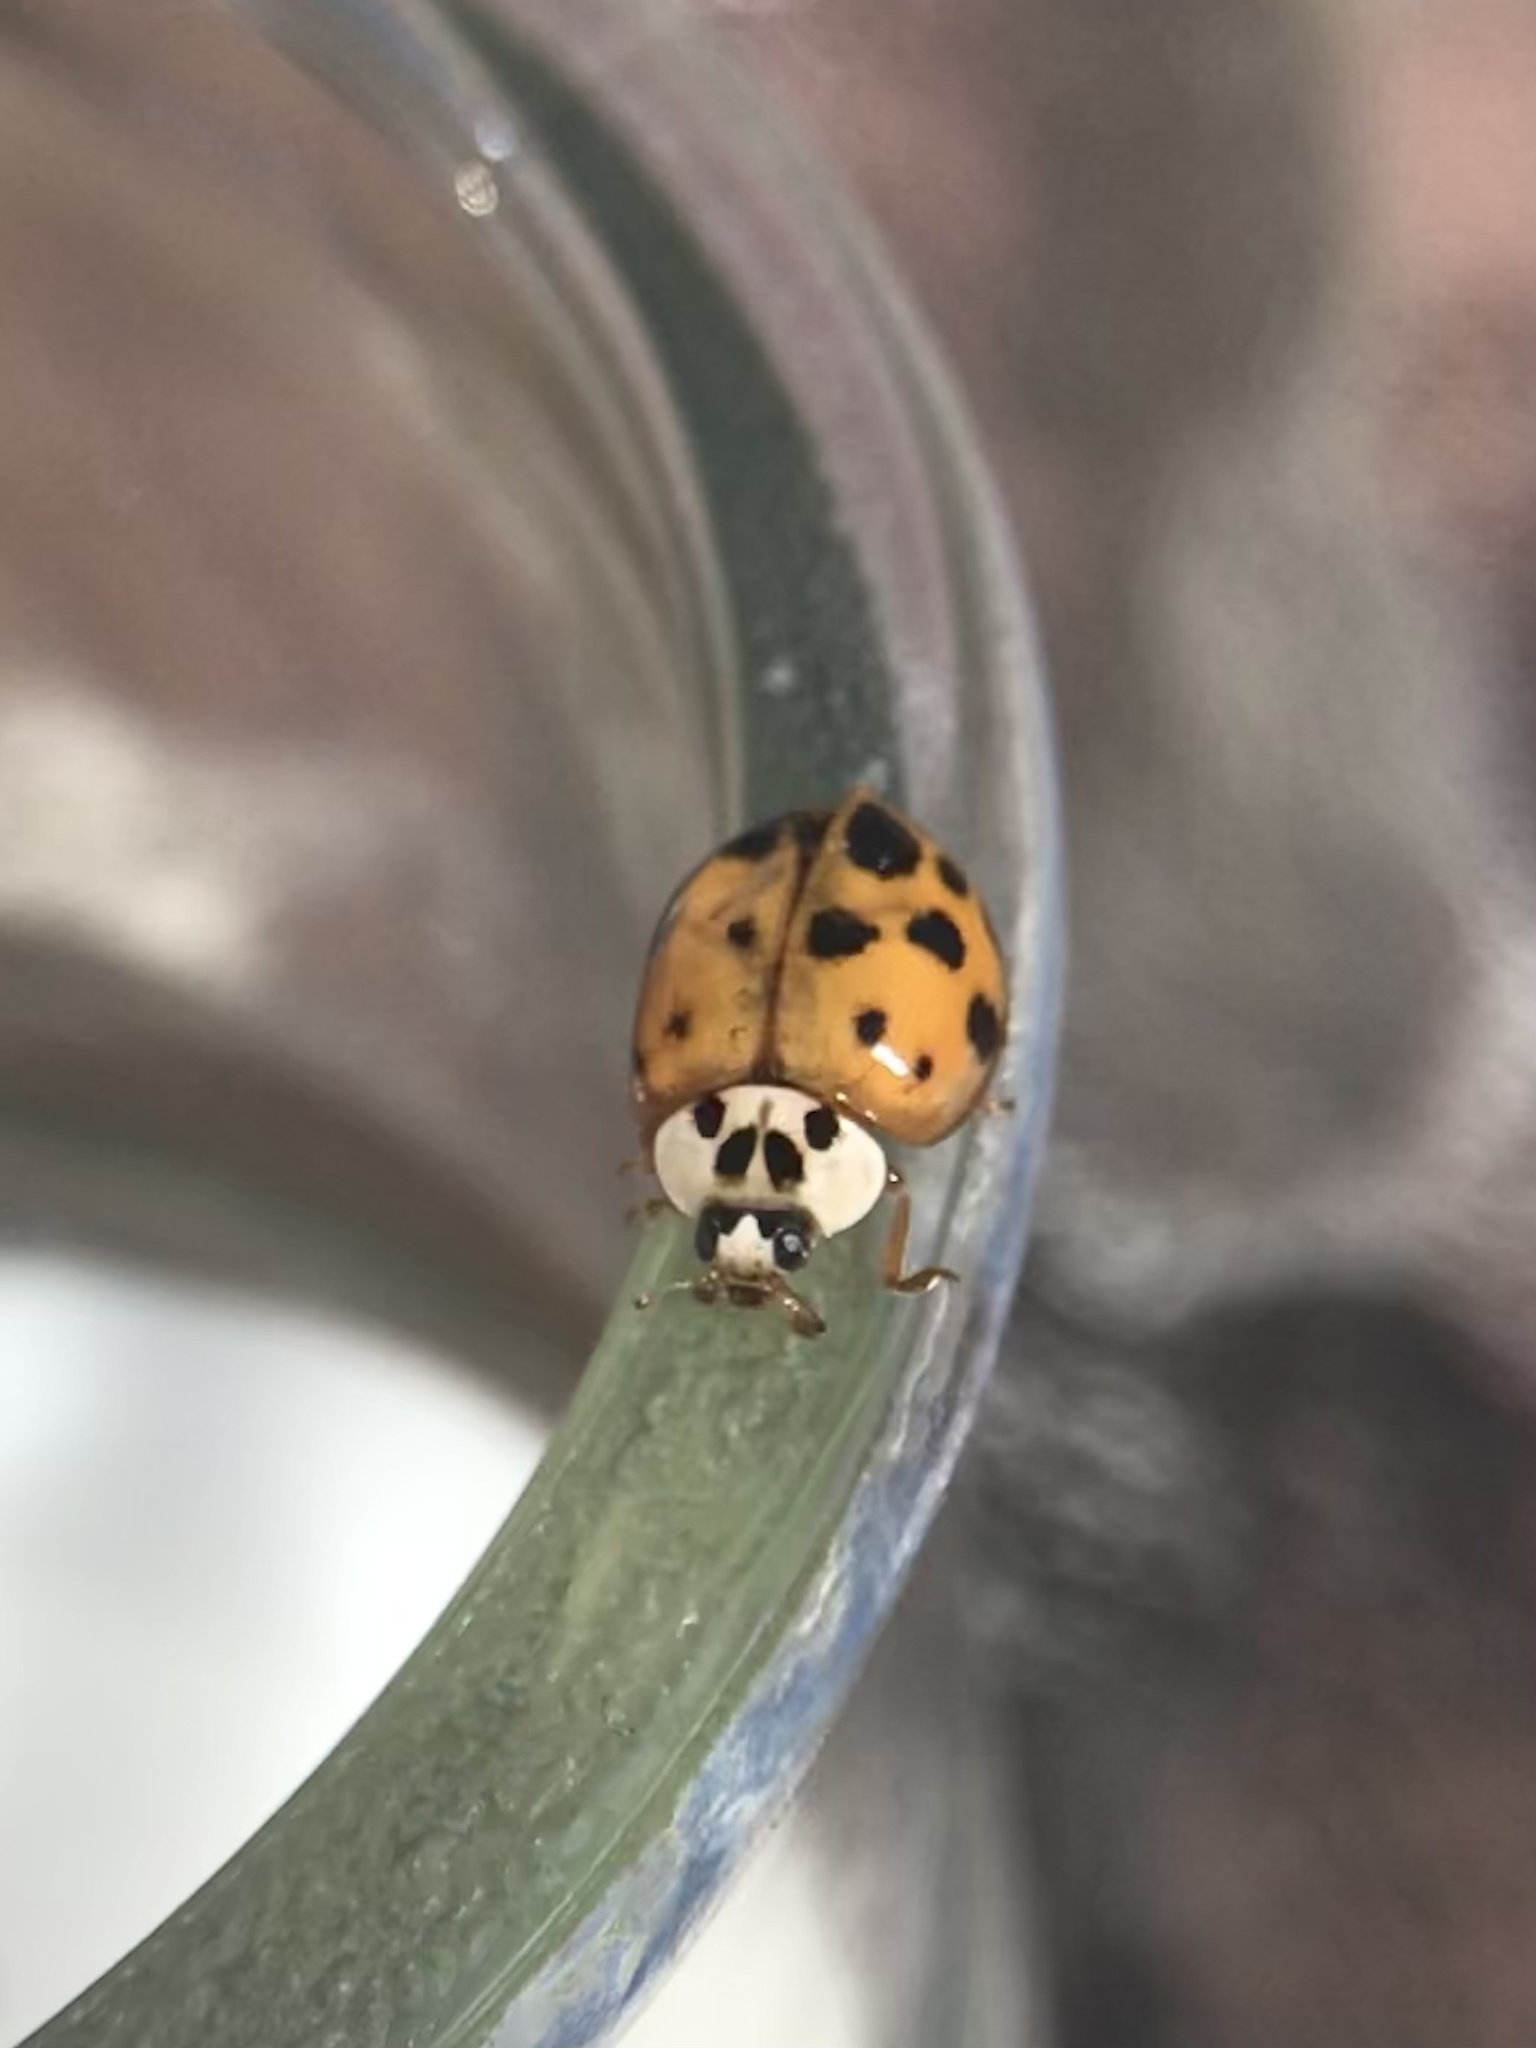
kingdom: Animalia
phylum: Arthropoda
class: Insecta
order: Coleoptera
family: Coccinellidae
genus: Harmonia
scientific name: Harmonia axyridis
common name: Harlequin ladybird
